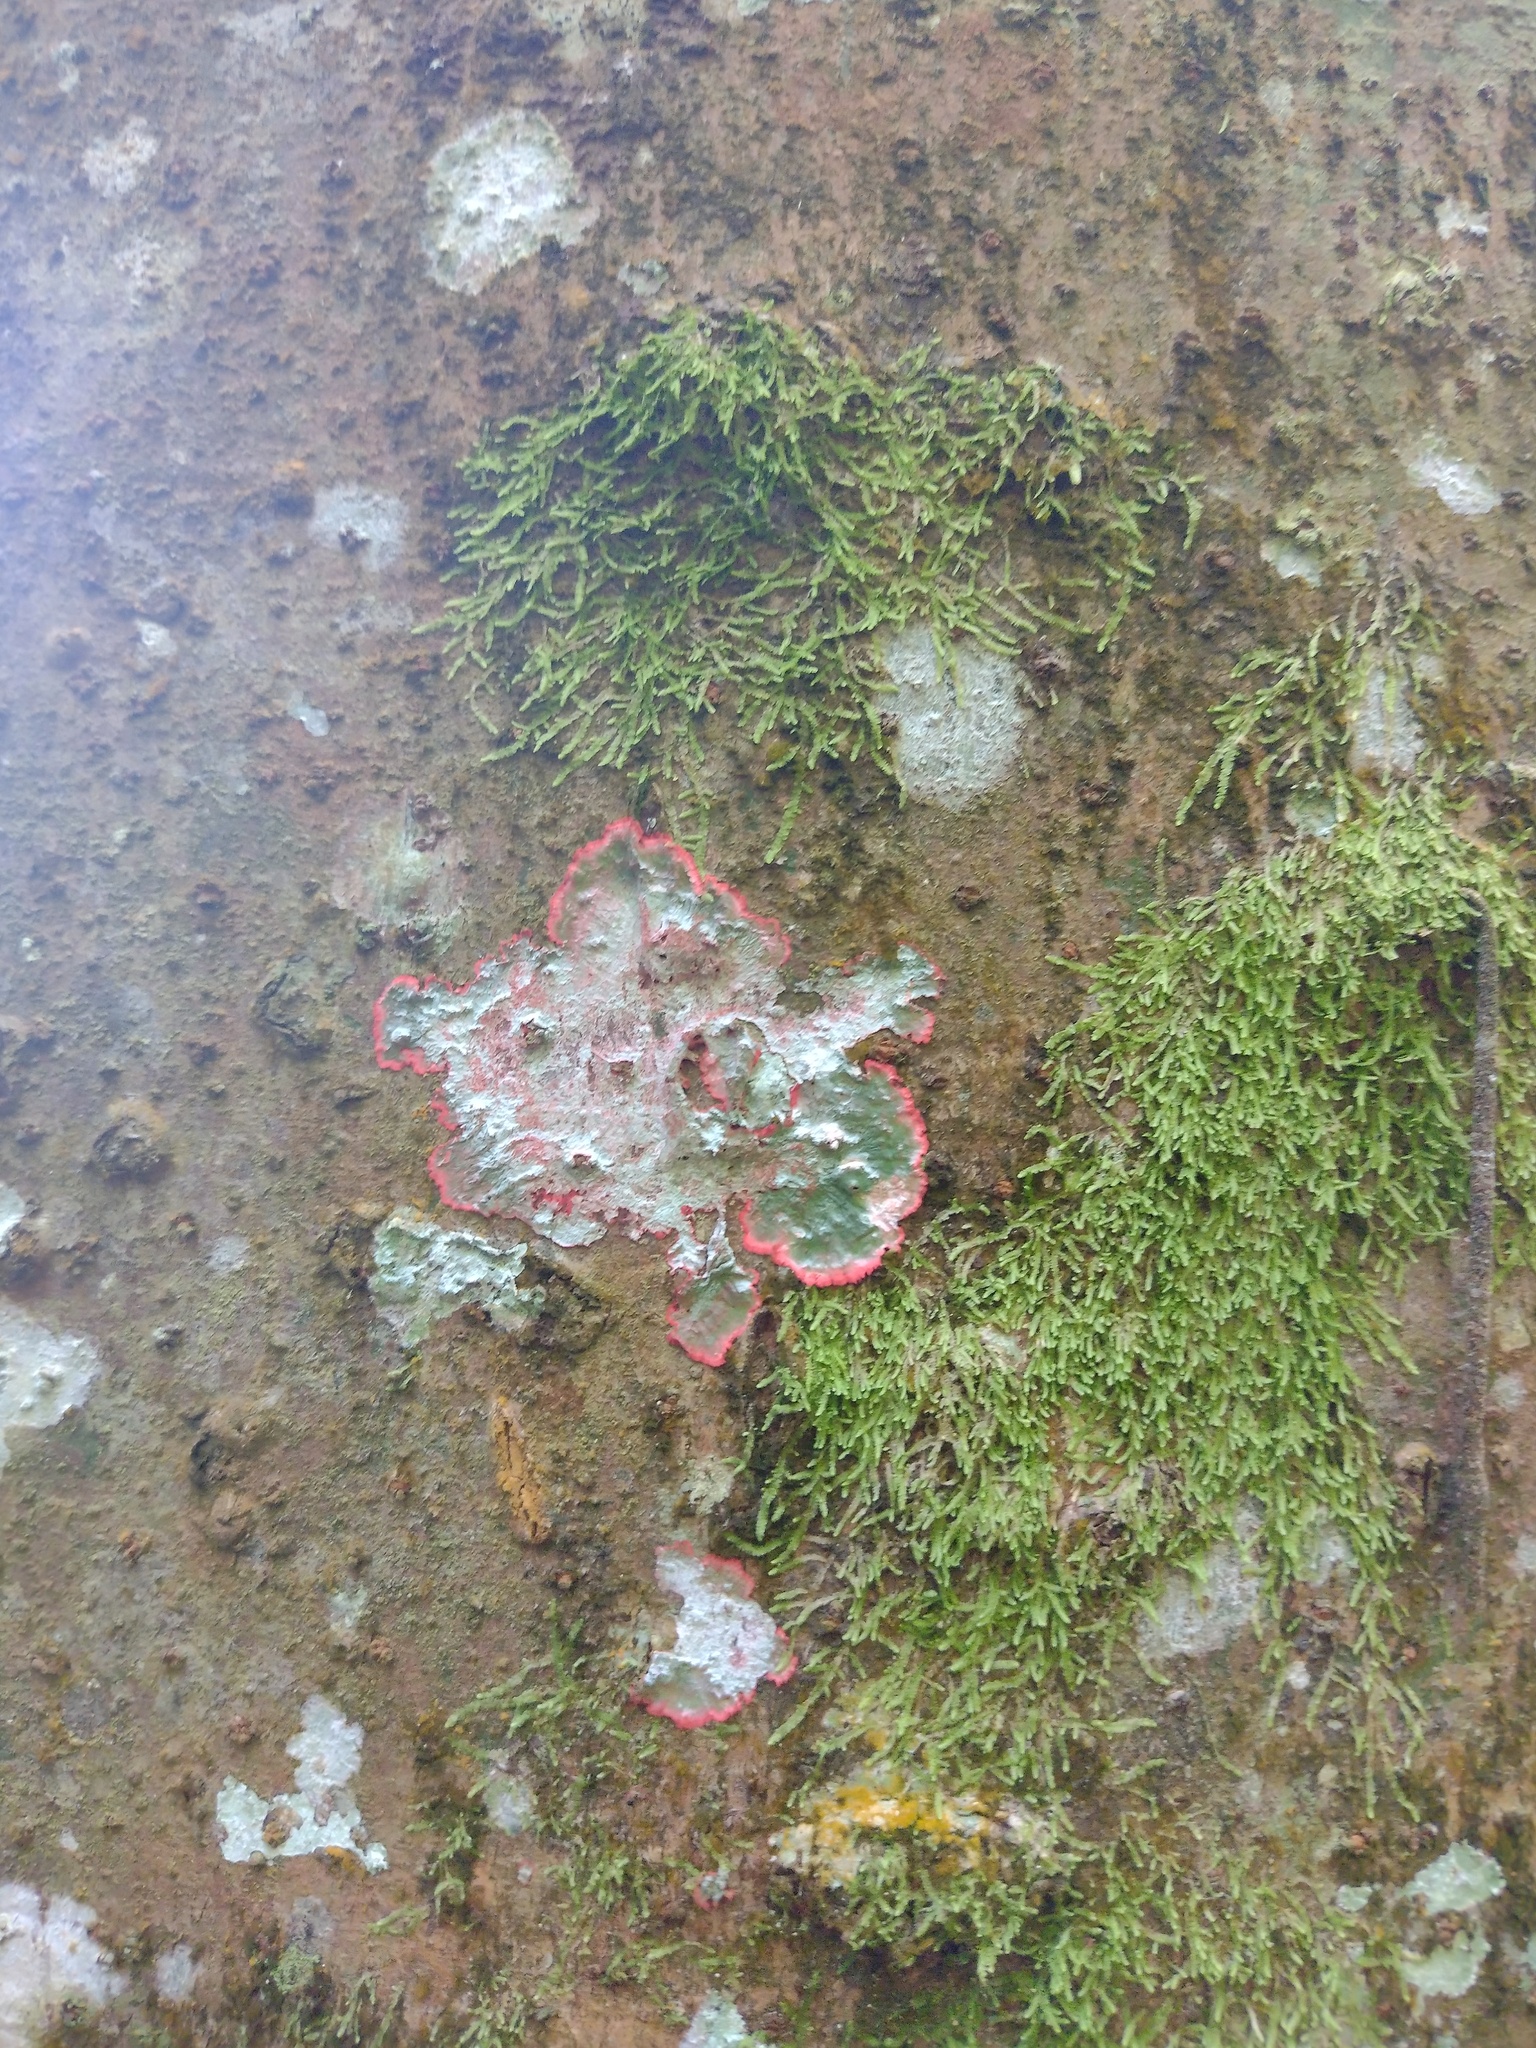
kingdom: Fungi
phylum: Ascomycota
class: Arthoniomycetes
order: Arthoniales
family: Arthoniaceae
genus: Herpothallon
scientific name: Herpothallon rubrocinctum
